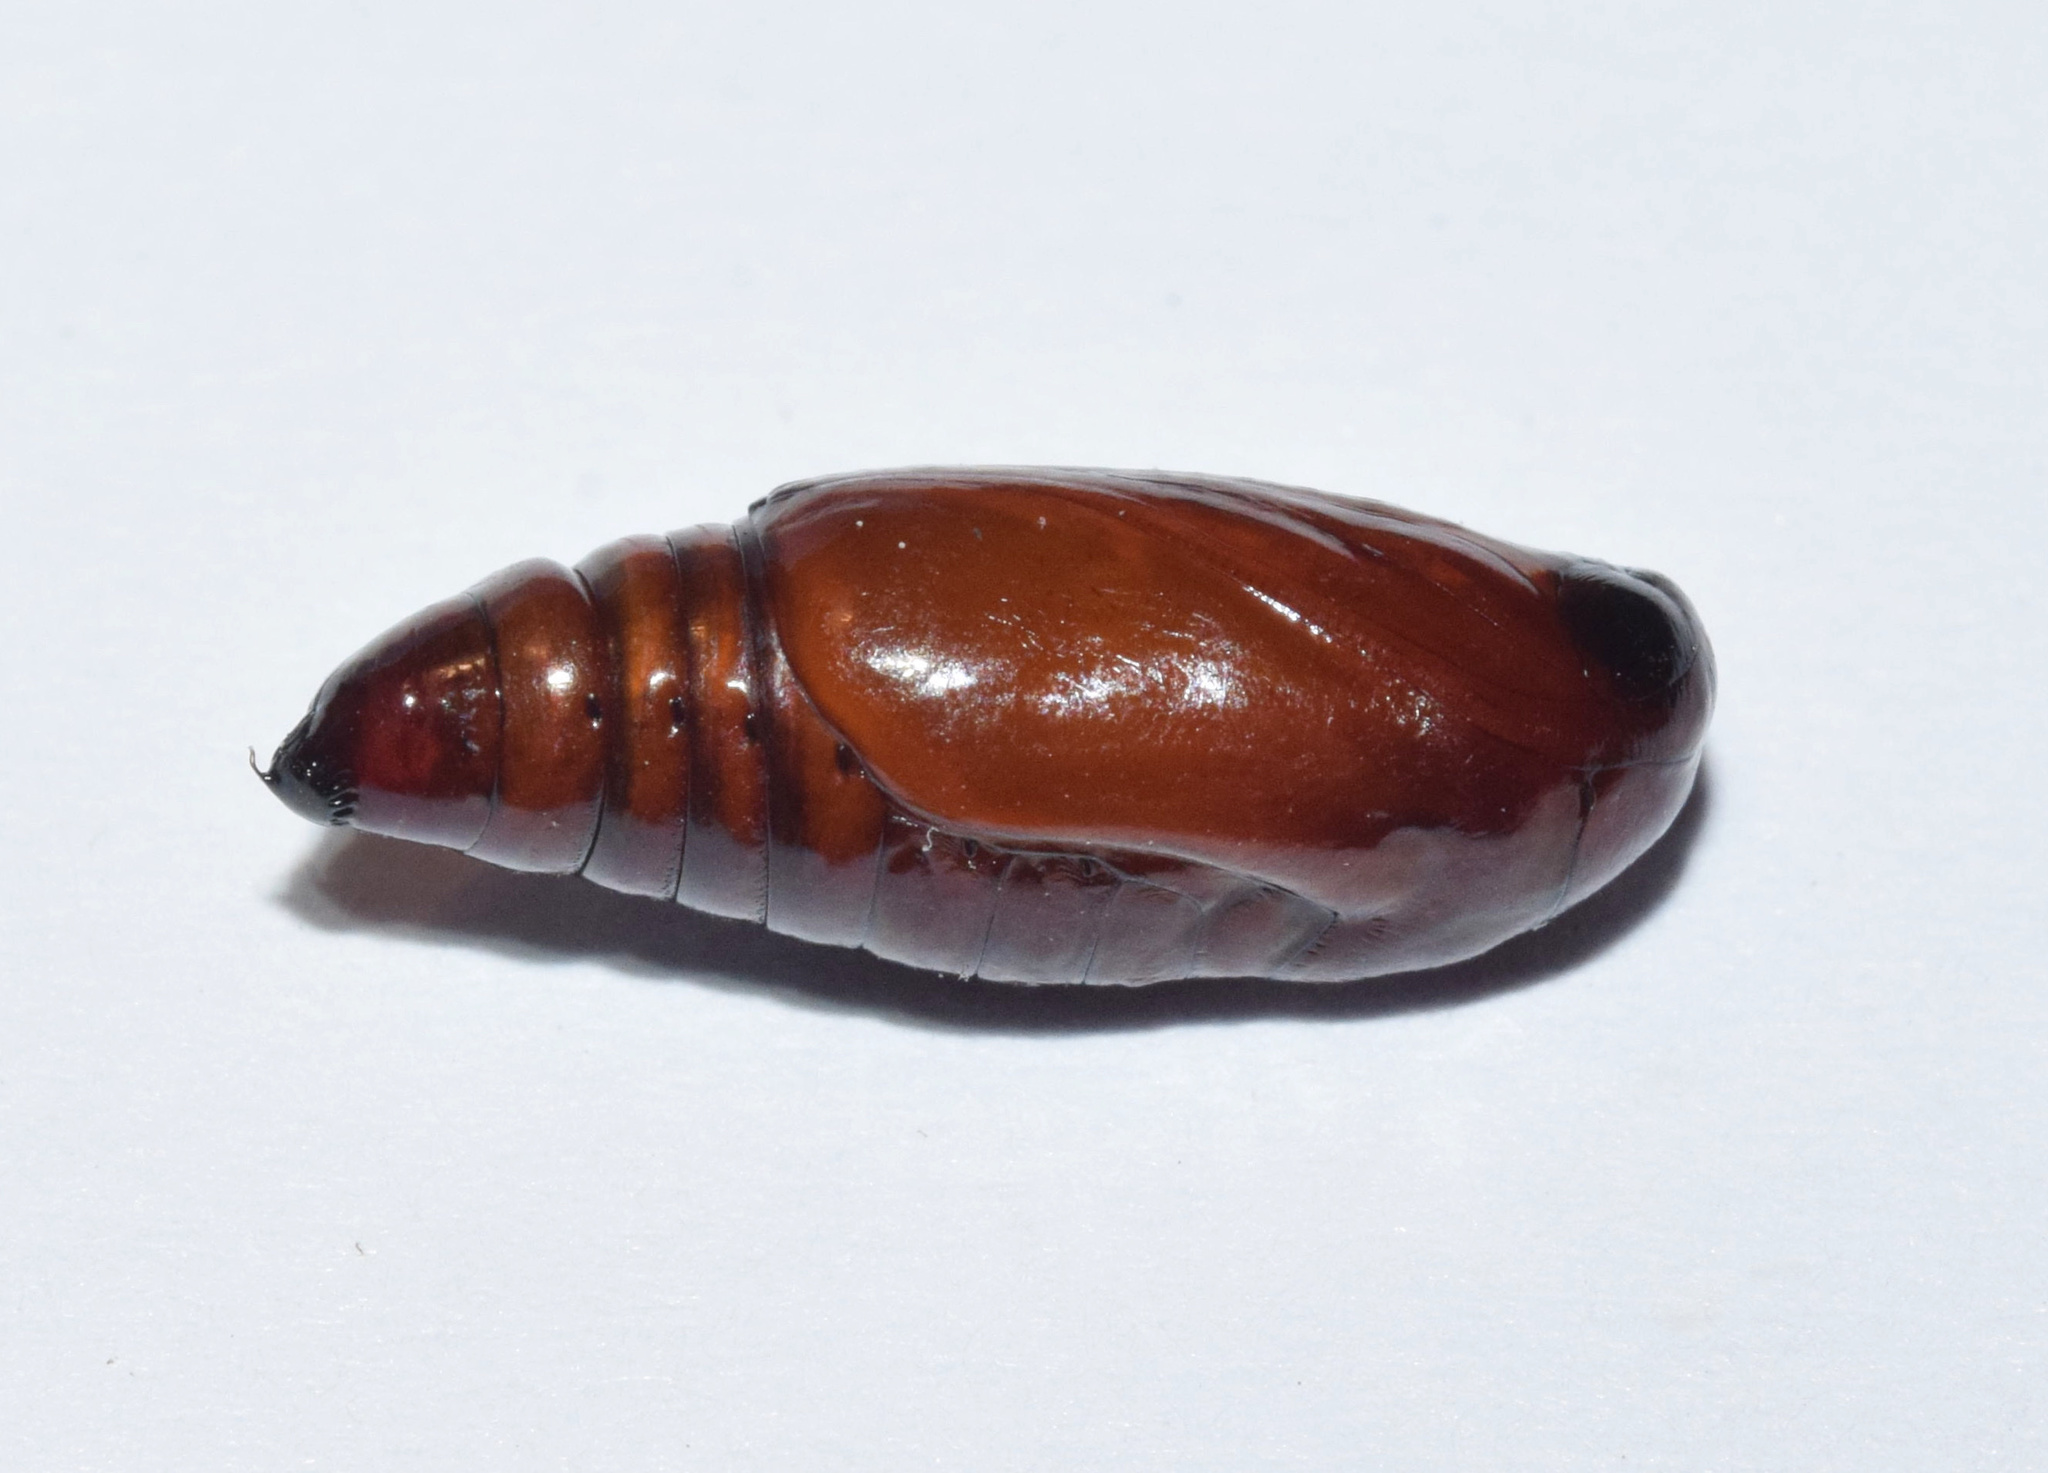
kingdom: Animalia
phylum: Arthropoda
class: Insecta
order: Lepidoptera
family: Noctuidae
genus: Callopistria
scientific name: Callopistria maillardi
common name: Cutworm
